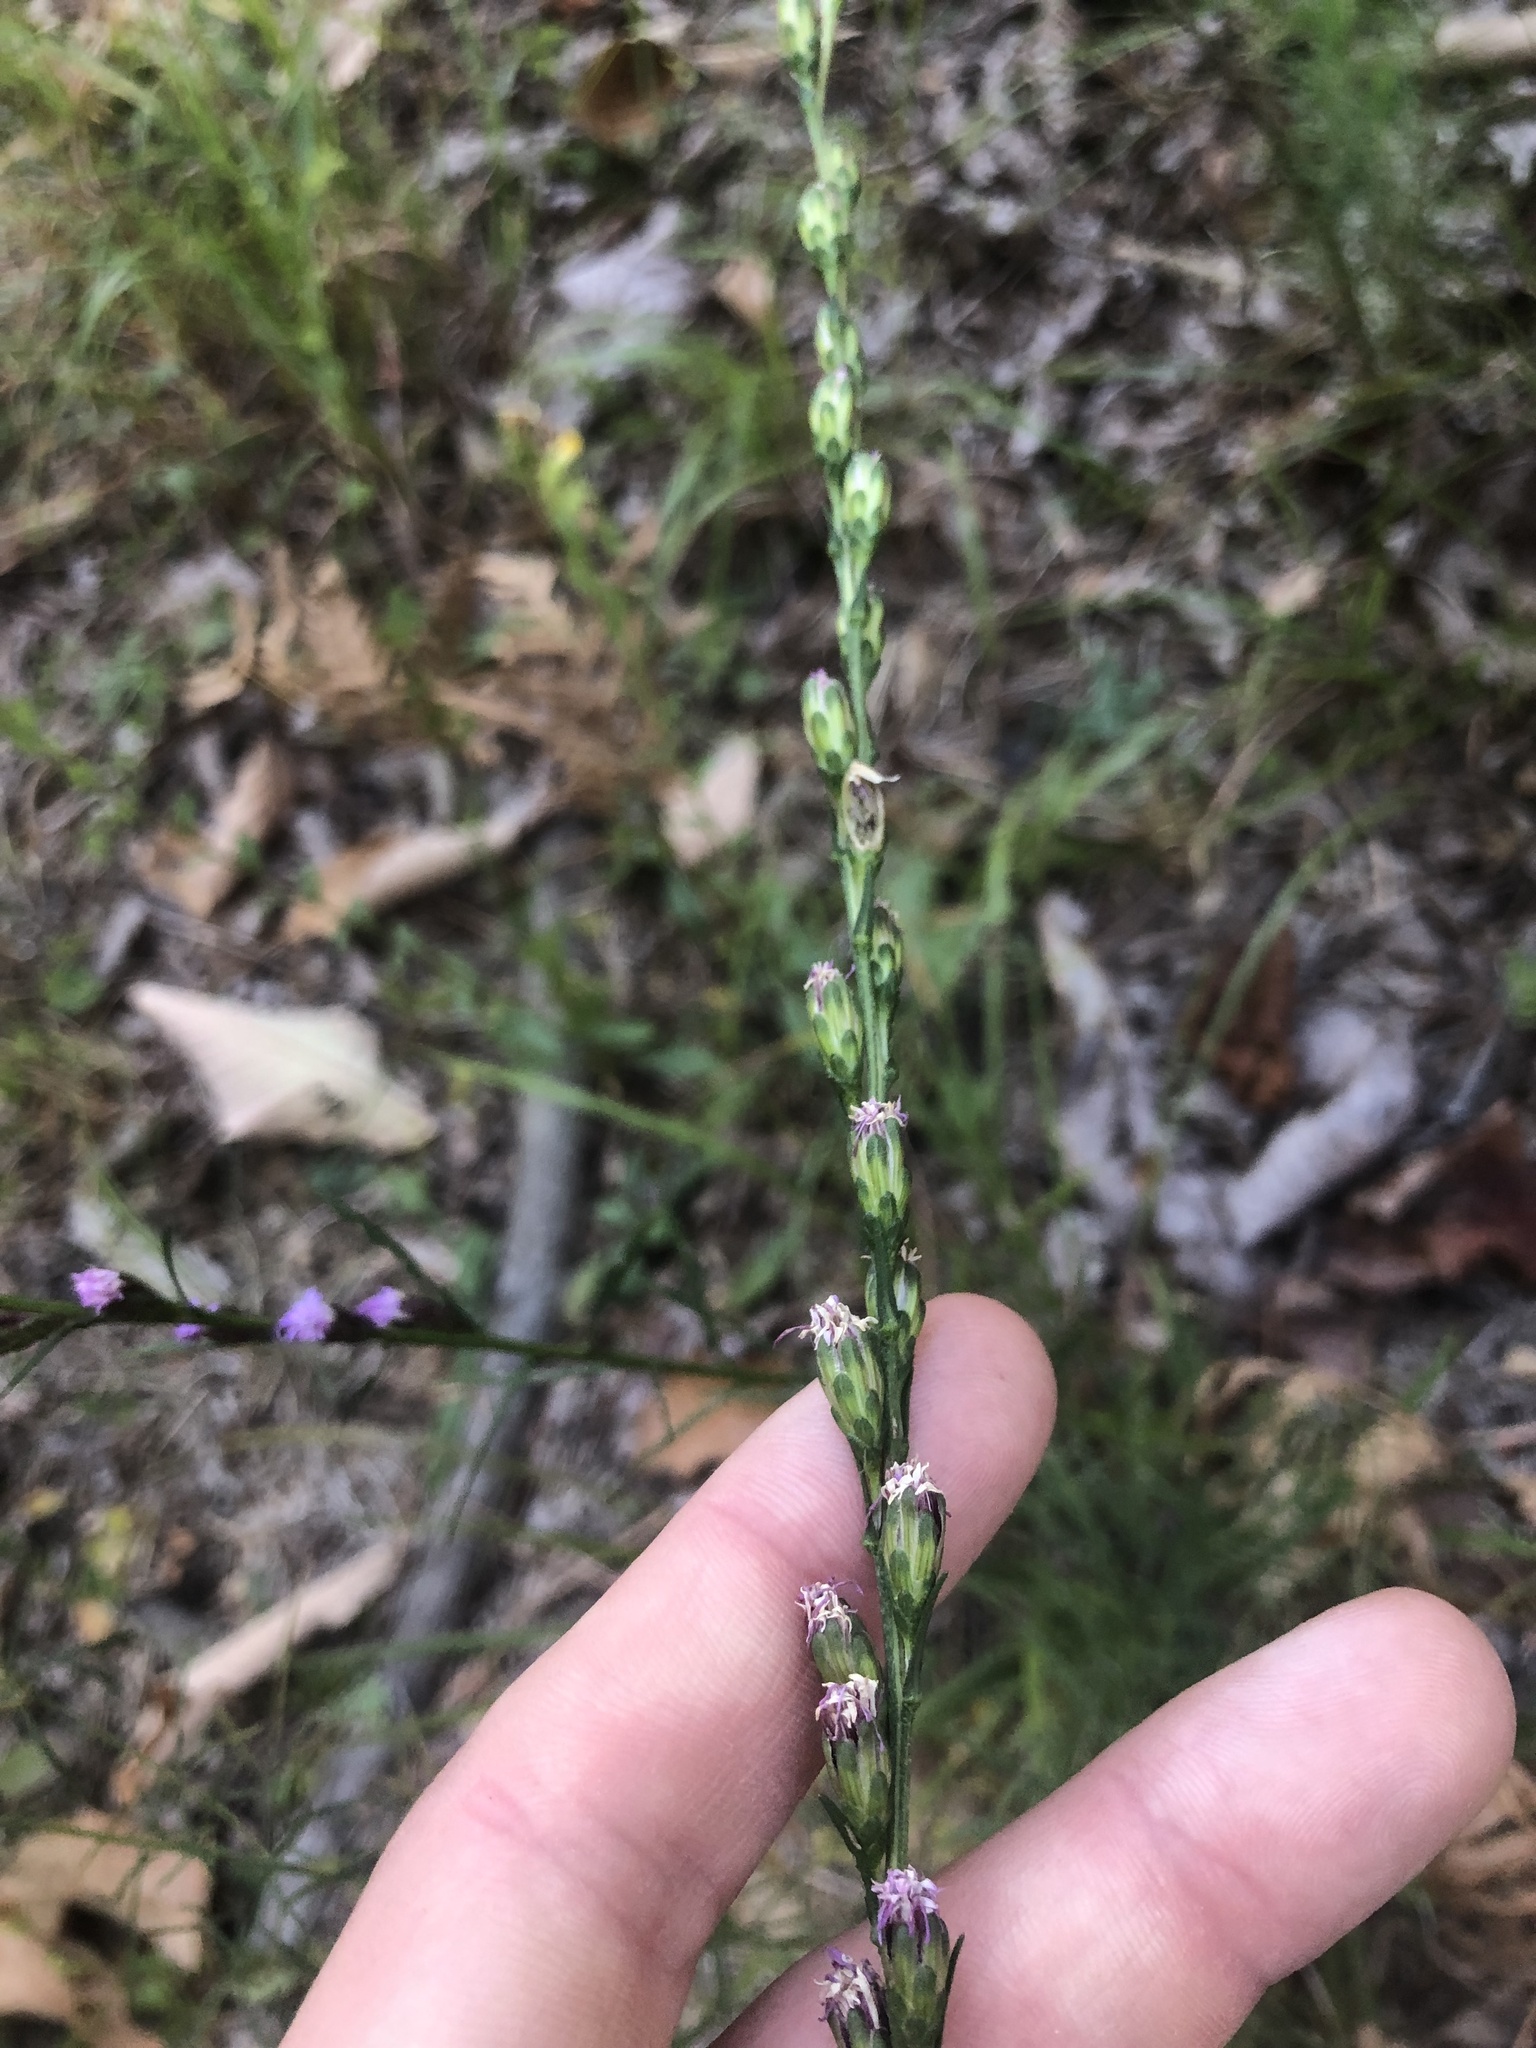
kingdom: Plantae
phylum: Tracheophyta
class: Magnoliopsida
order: Asterales
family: Asteraceae
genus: Liatris
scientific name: Liatris pilosa
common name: Grass-leaf gayfeather
